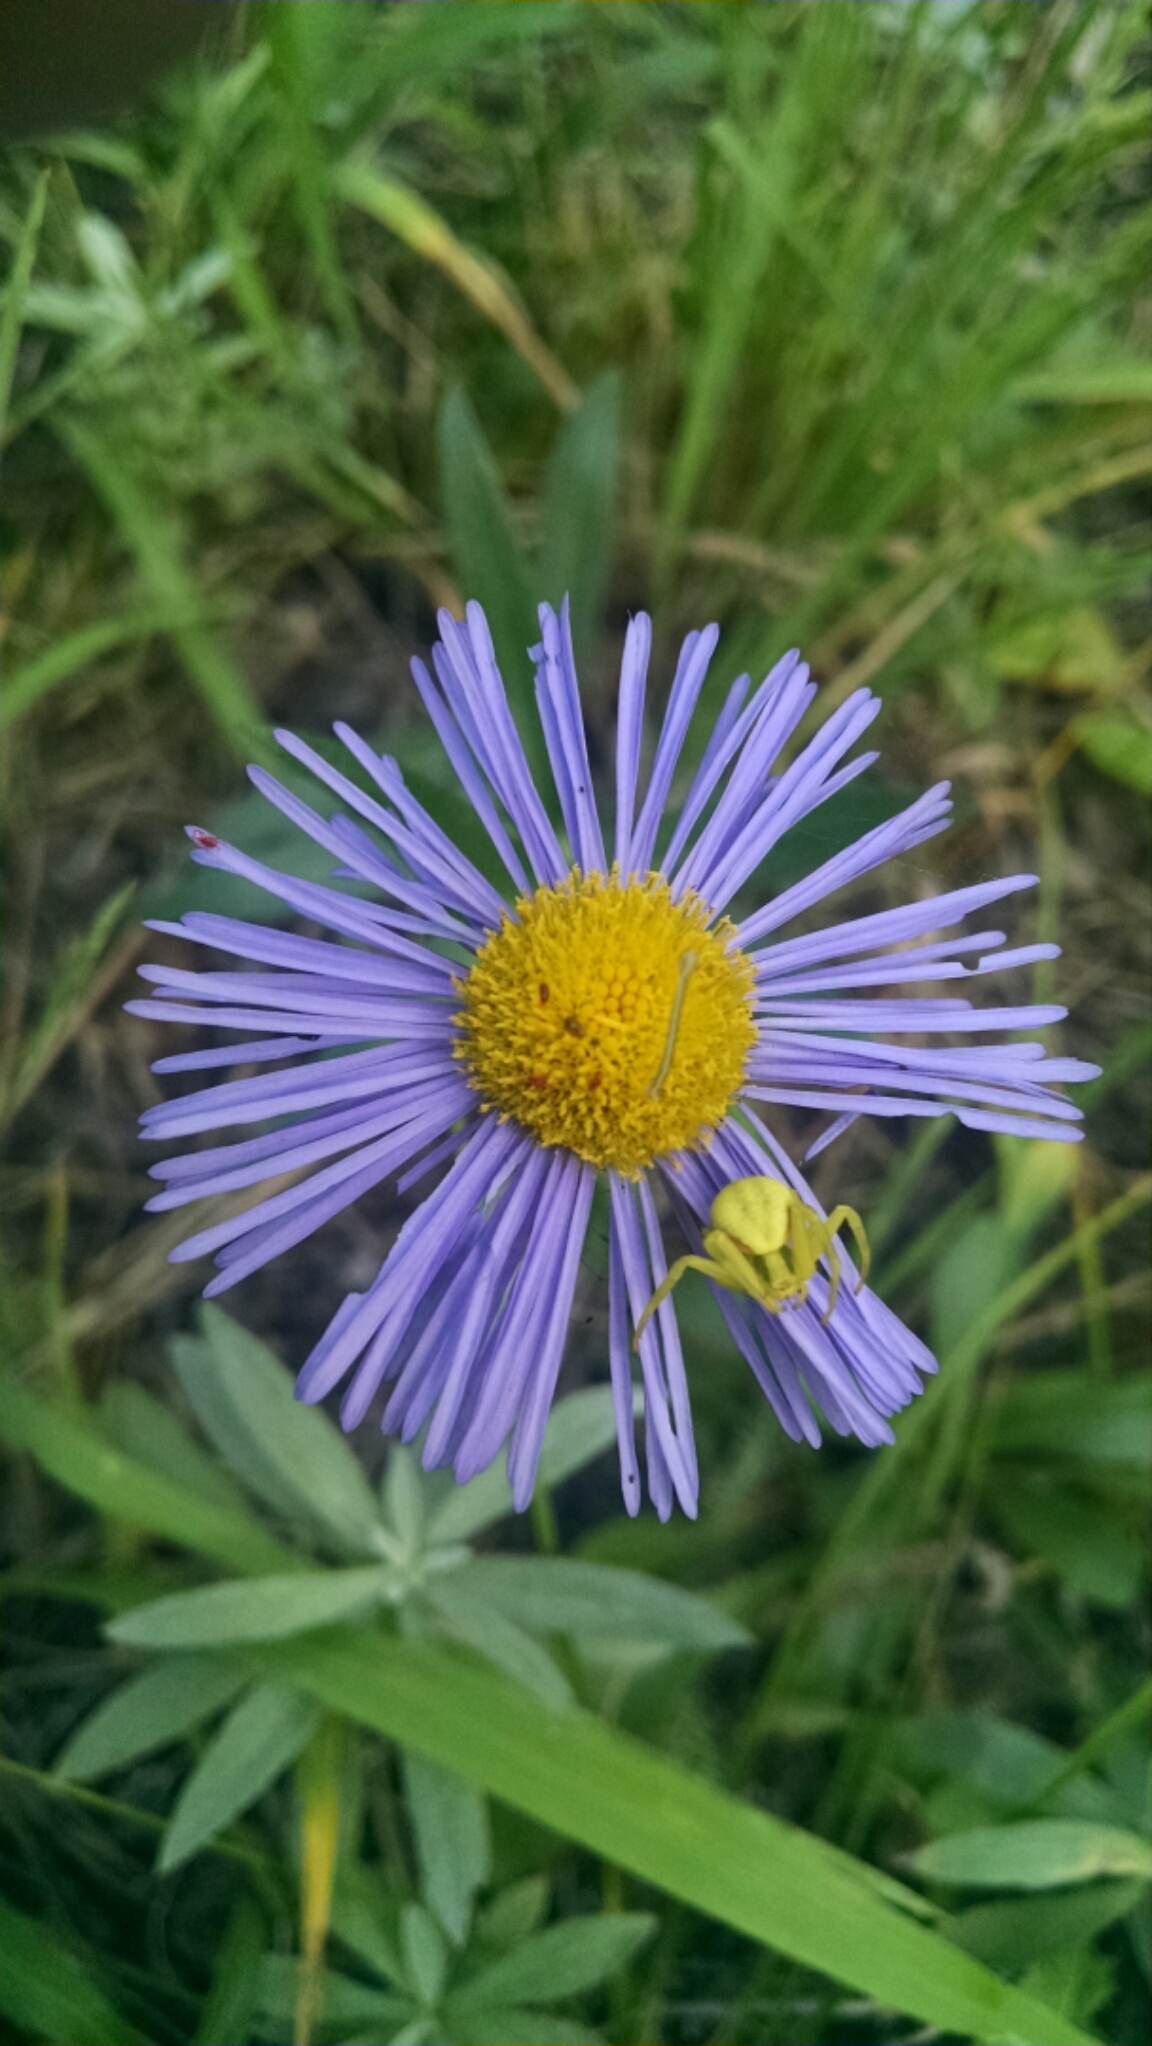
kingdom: Plantae
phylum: Tracheophyta
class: Magnoliopsida
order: Asterales
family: Asteraceae
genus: Erigeron
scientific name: Erigeron speciosus
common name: Aspen fleabane
